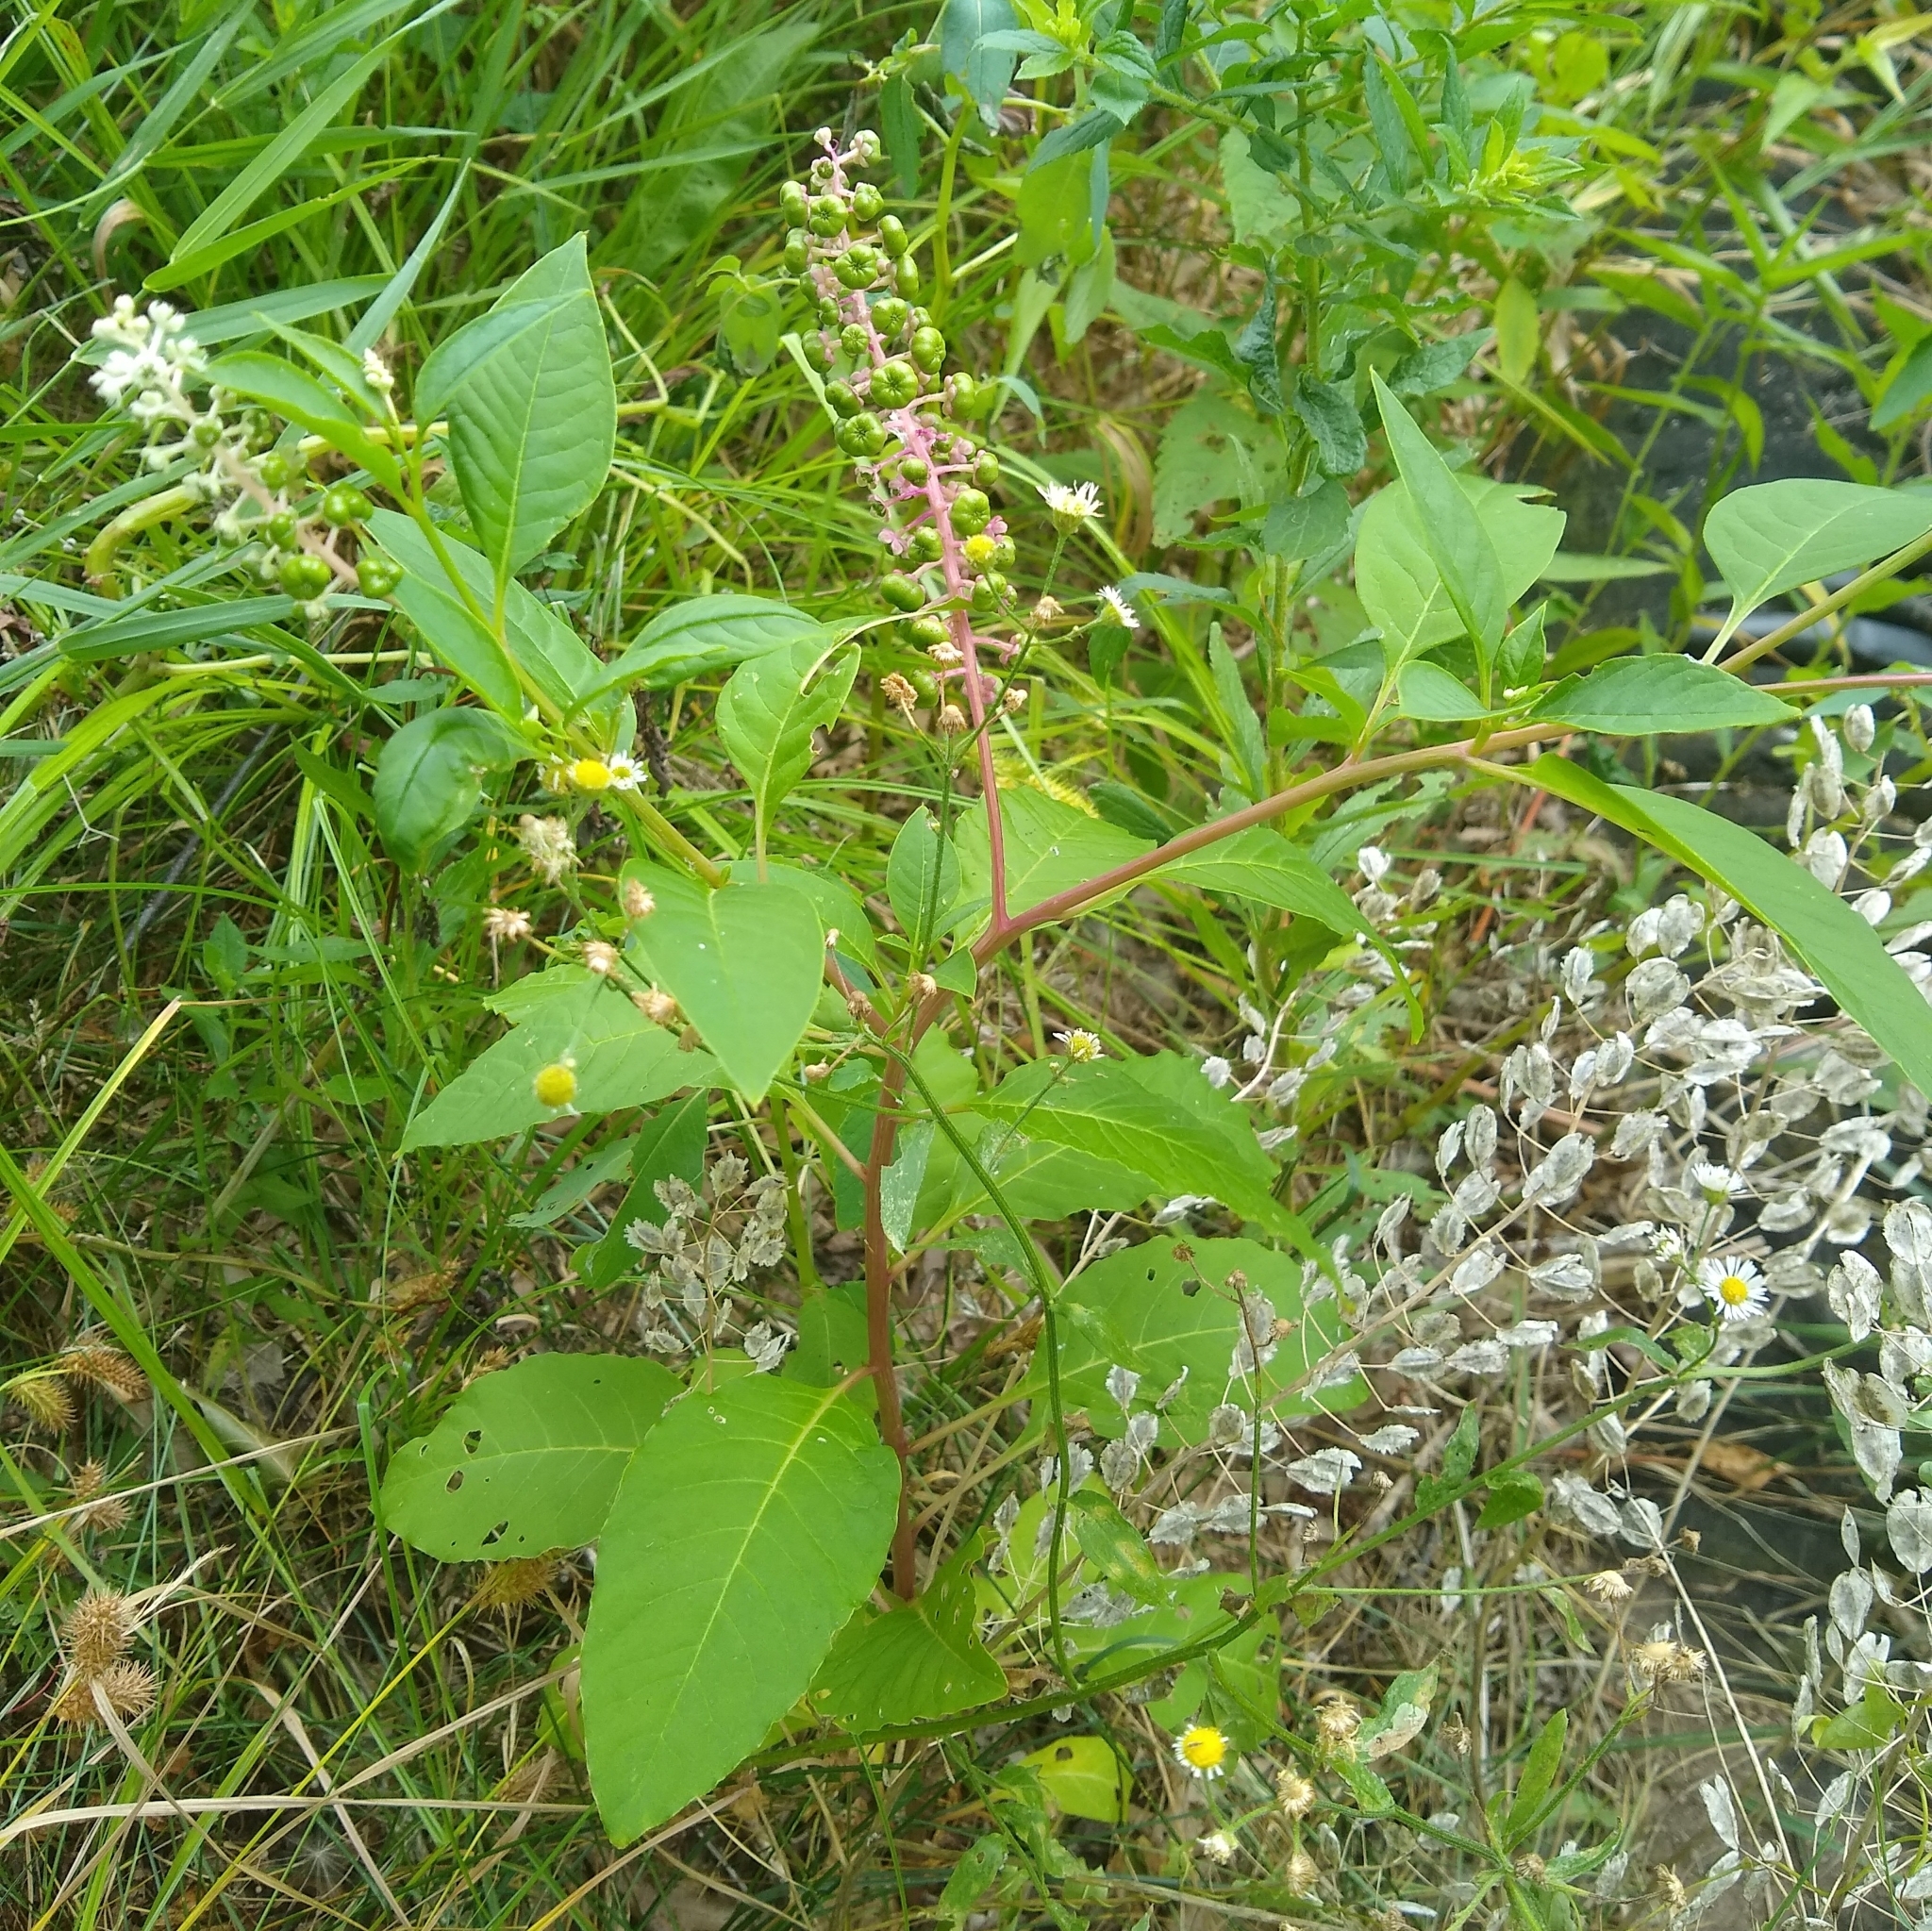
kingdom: Plantae
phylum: Tracheophyta
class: Magnoliopsida
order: Caryophyllales
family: Phytolaccaceae
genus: Phytolacca
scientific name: Phytolacca americana
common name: American pokeweed
